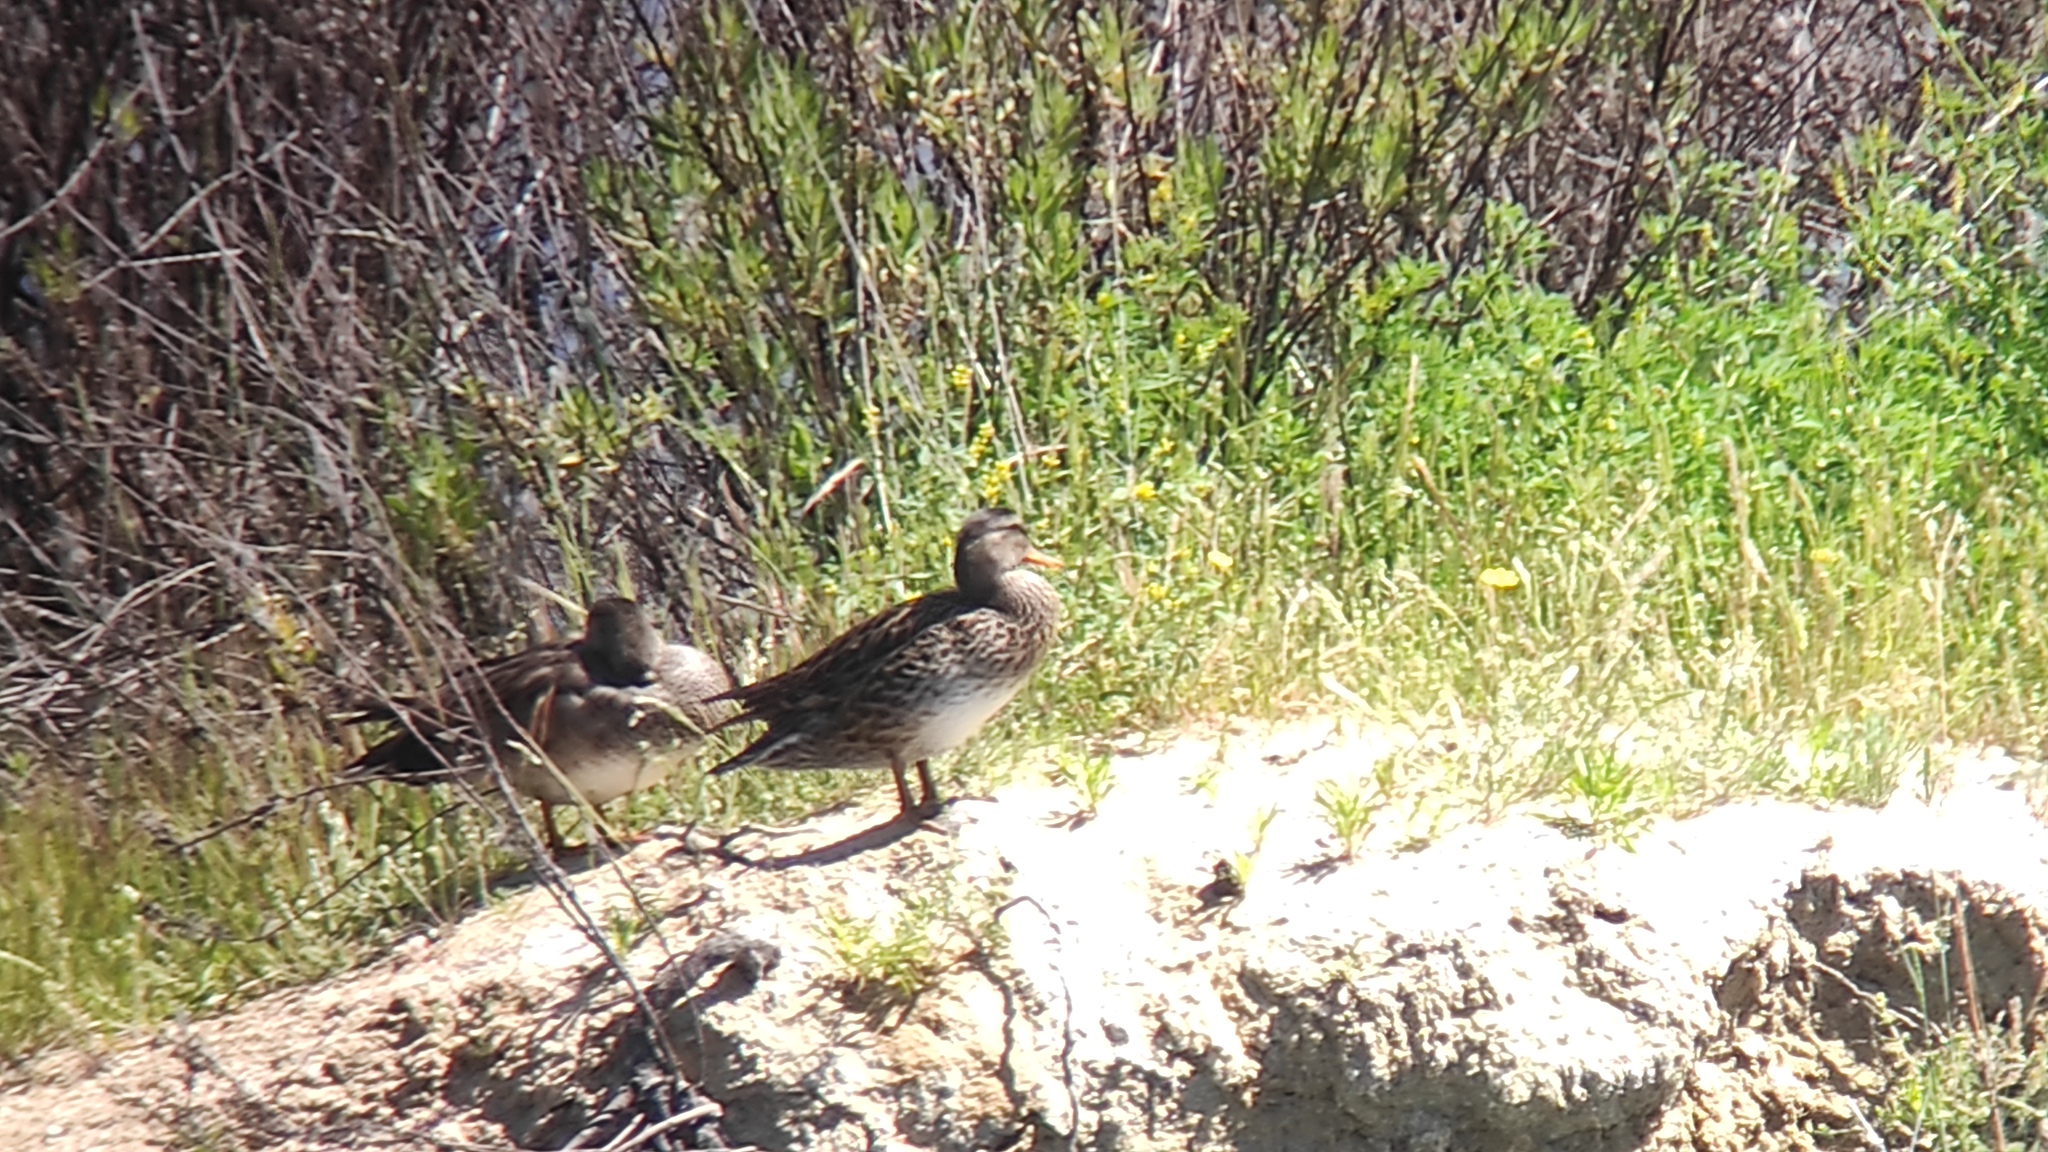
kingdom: Animalia
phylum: Chordata
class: Aves
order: Anseriformes
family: Anatidae
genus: Mareca
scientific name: Mareca strepera
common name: Gadwall
